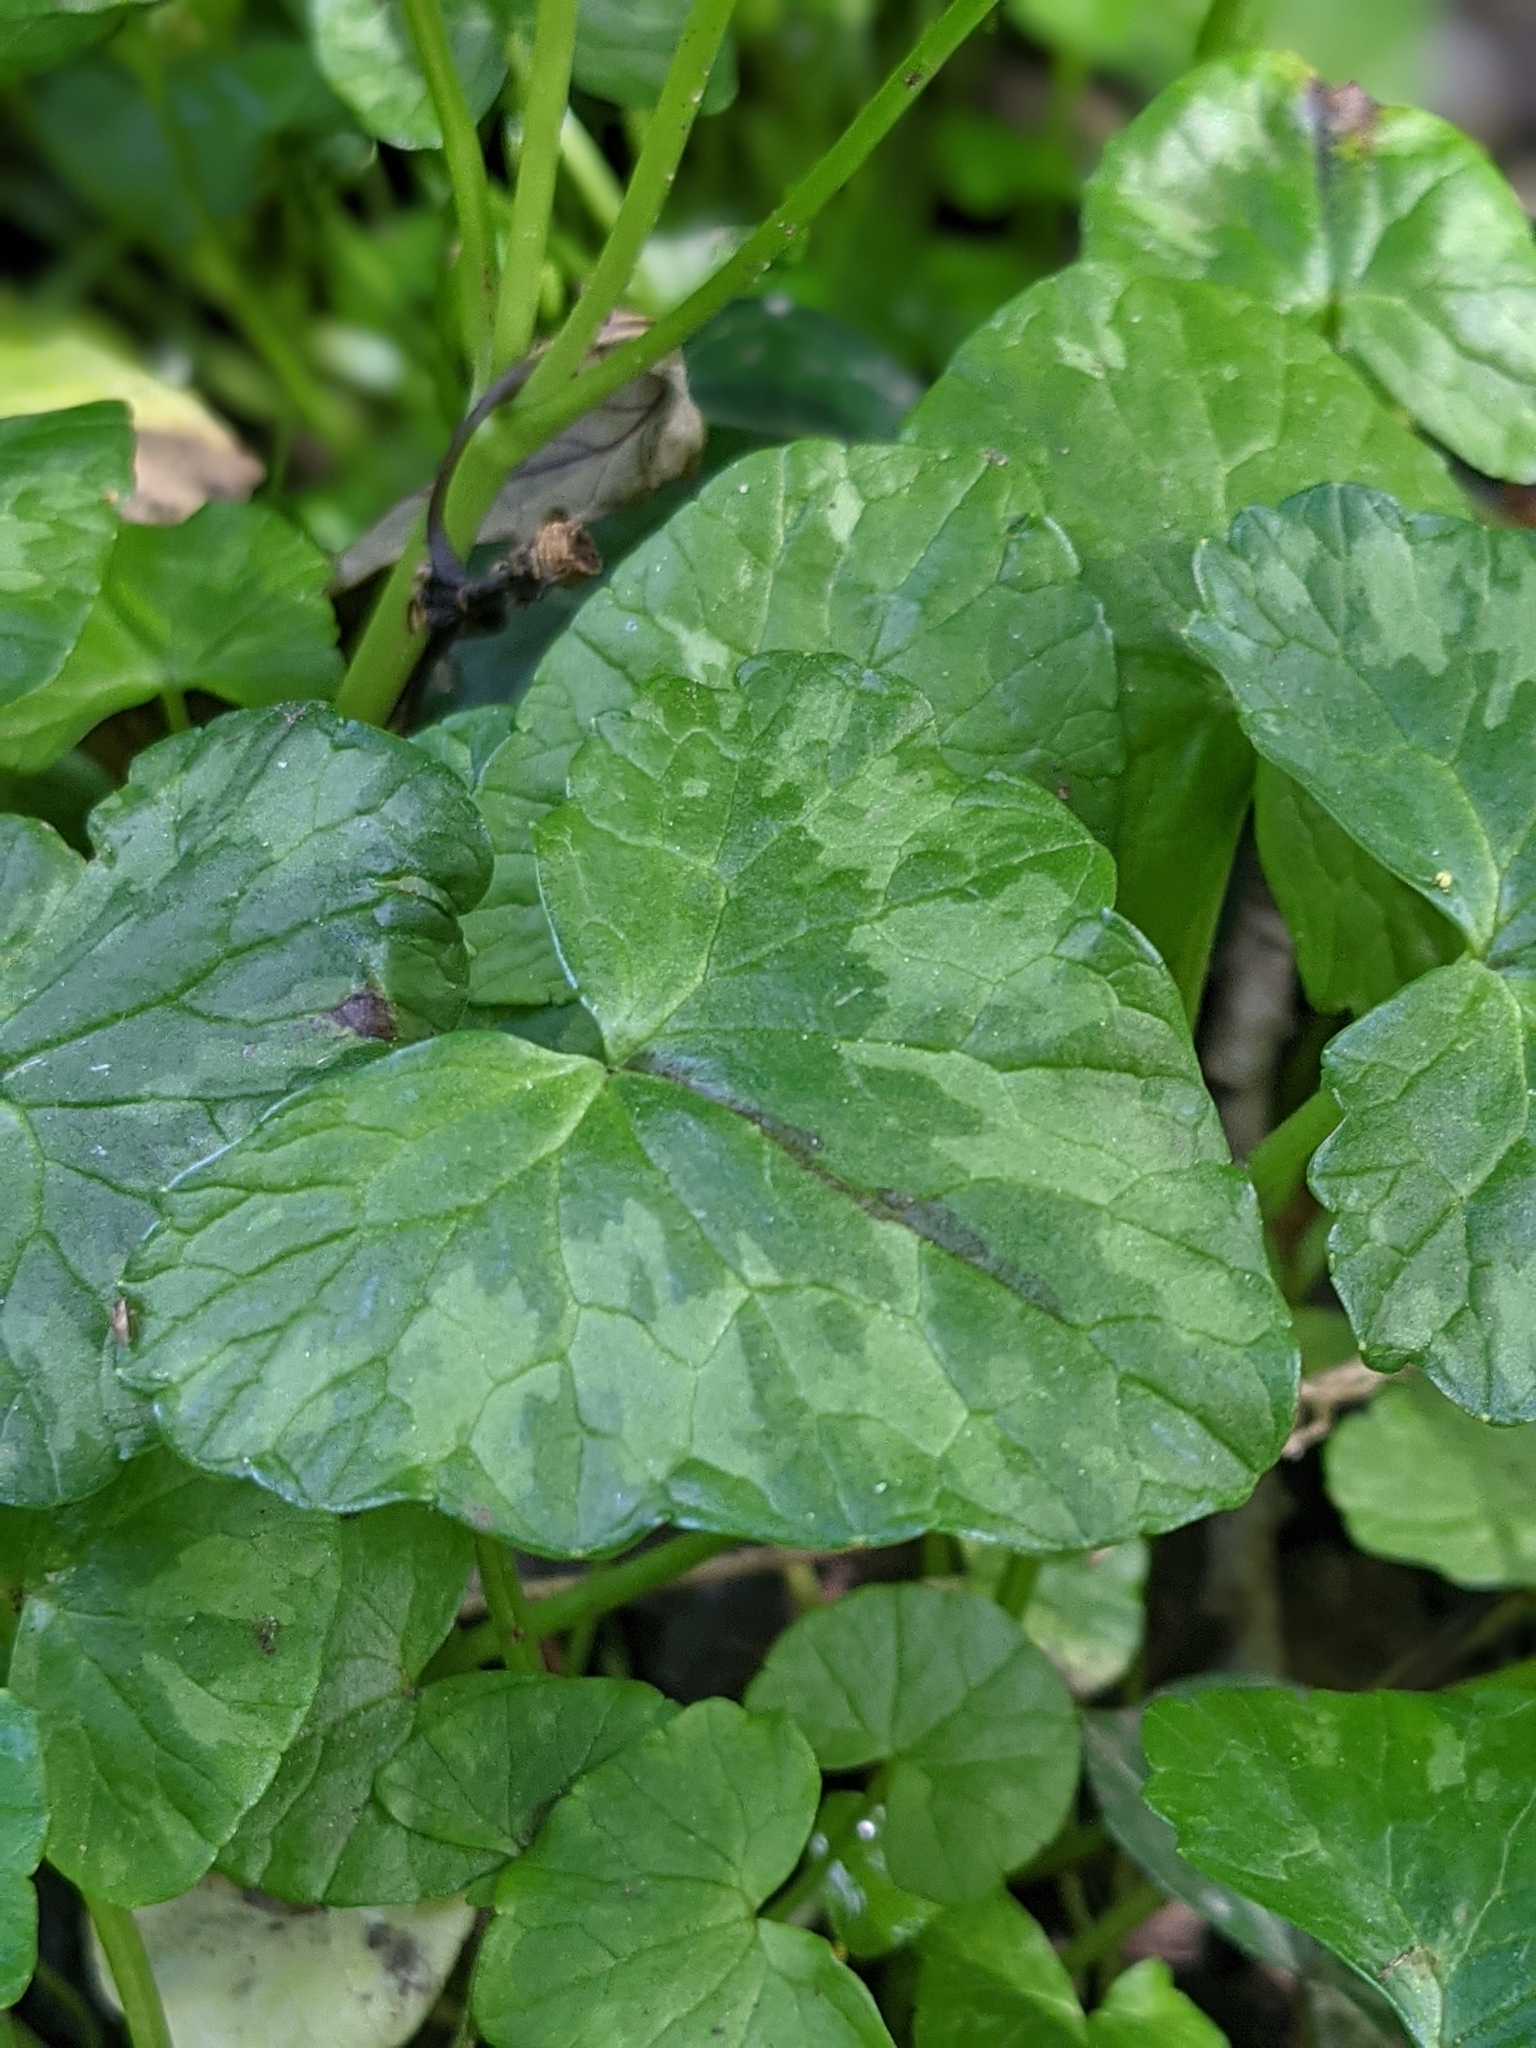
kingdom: Plantae
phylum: Tracheophyta
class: Magnoliopsida
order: Ranunculales
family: Ranunculaceae
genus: Ficaria
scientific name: Ficaria verna
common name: Lesser celandine
